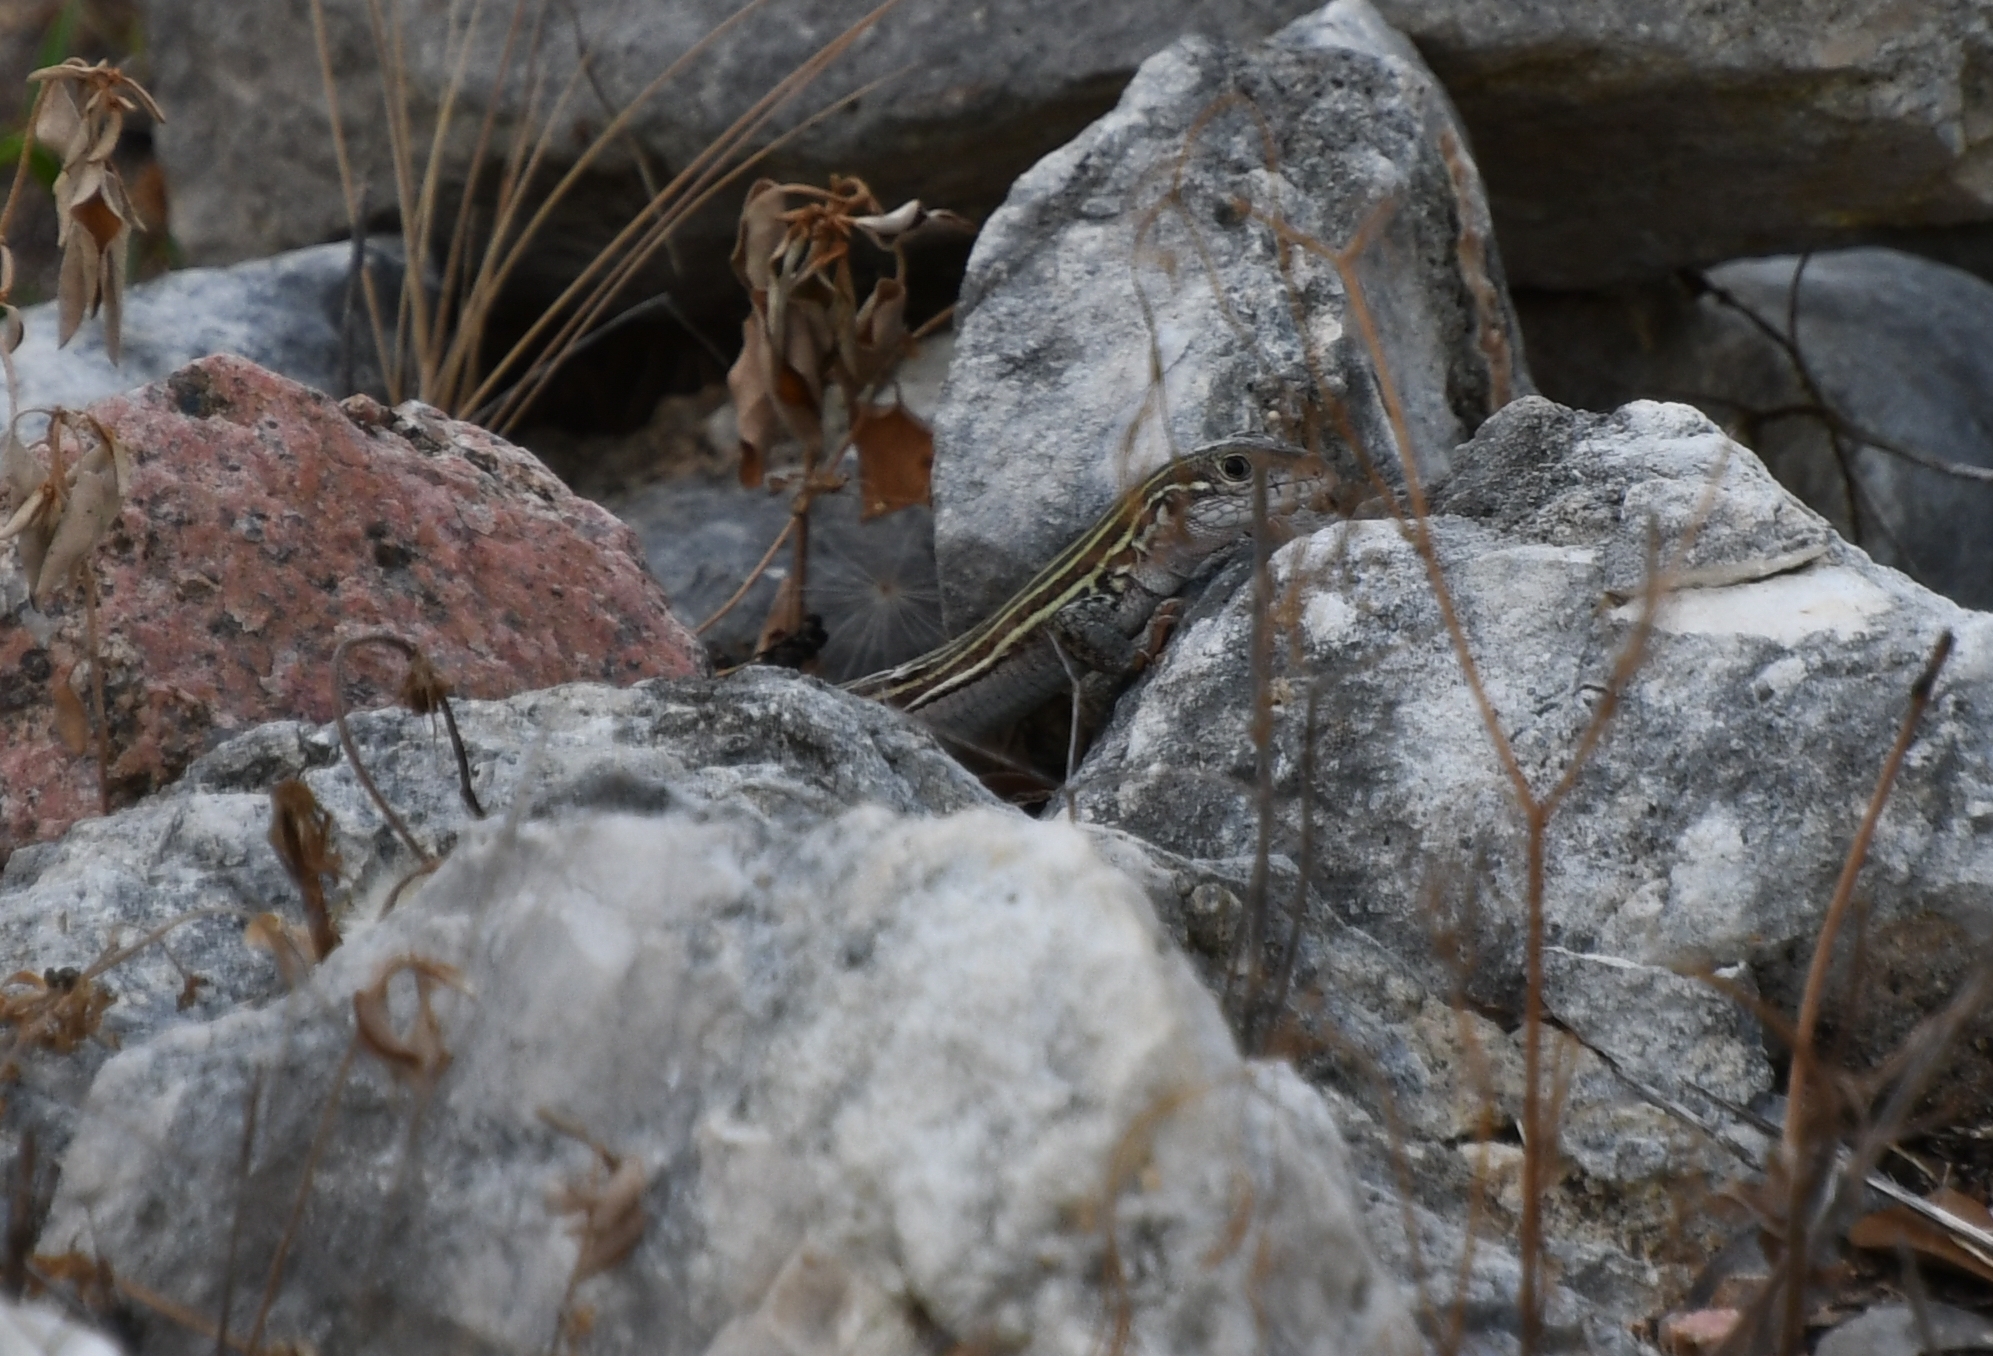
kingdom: Animalia
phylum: Chordata
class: Squamata
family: Teiidae
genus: Aspidoscelis
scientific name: Aspidoscelis gularis
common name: Eastern spotted whiptail
